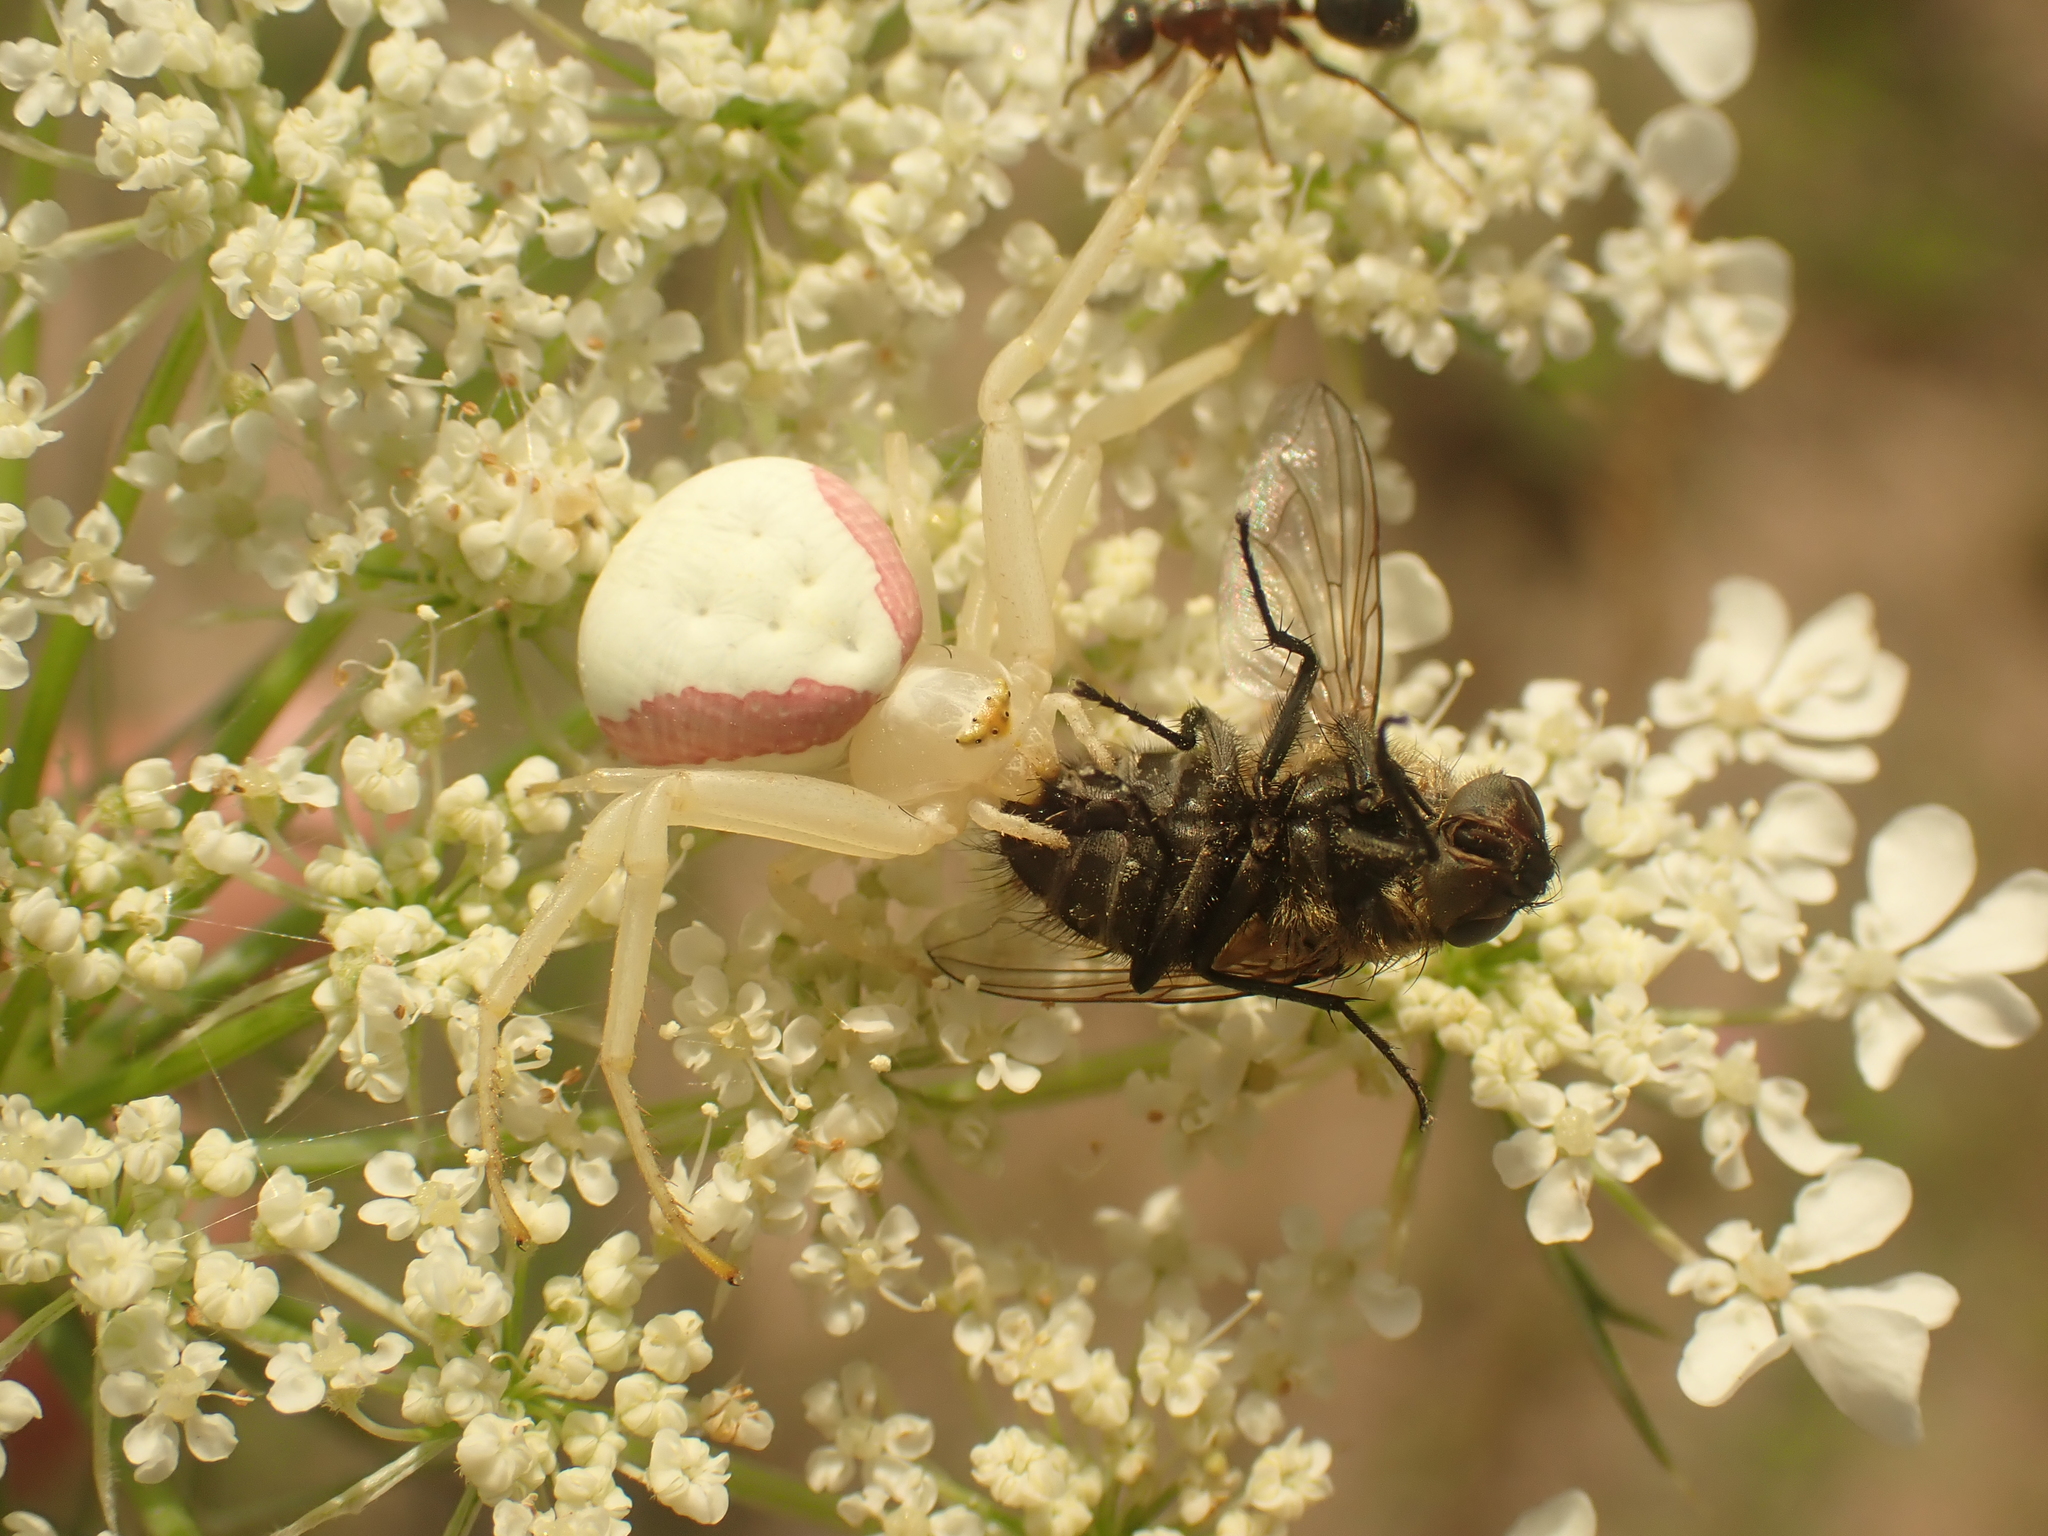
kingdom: Animalia
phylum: Arthropoda
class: Arachnida
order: Araneae
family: Thomisidae
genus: Misumena
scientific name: Misumena vatia
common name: Goldenrod crab spider
